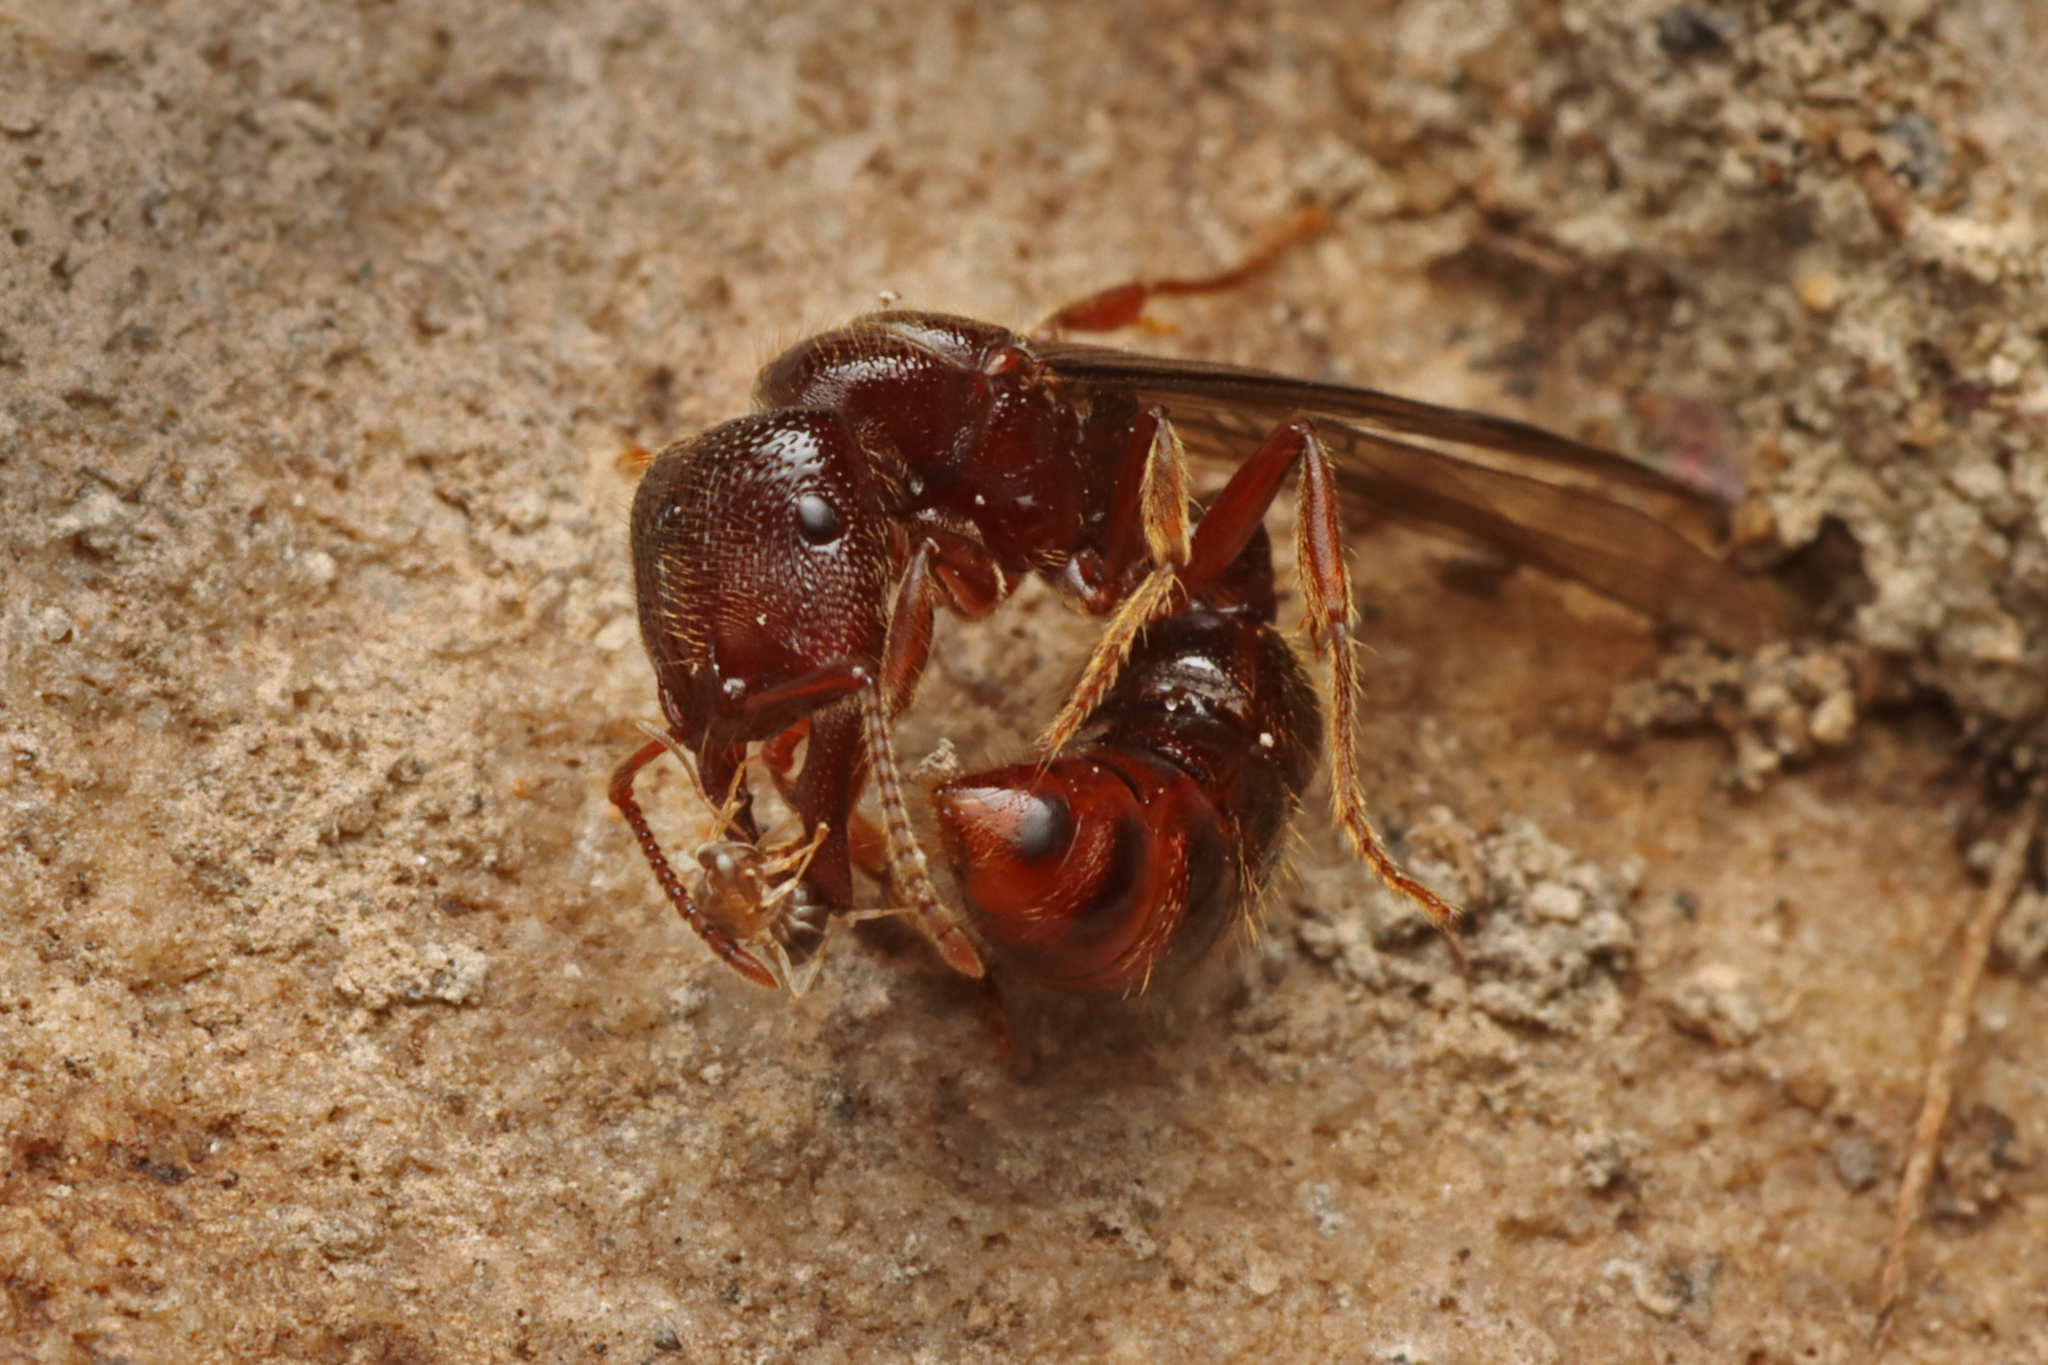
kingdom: Animalia
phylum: Arthropoda
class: Insecta
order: Hymenoptera
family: Formicidae
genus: Amblyopone
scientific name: Amblyopone australis
